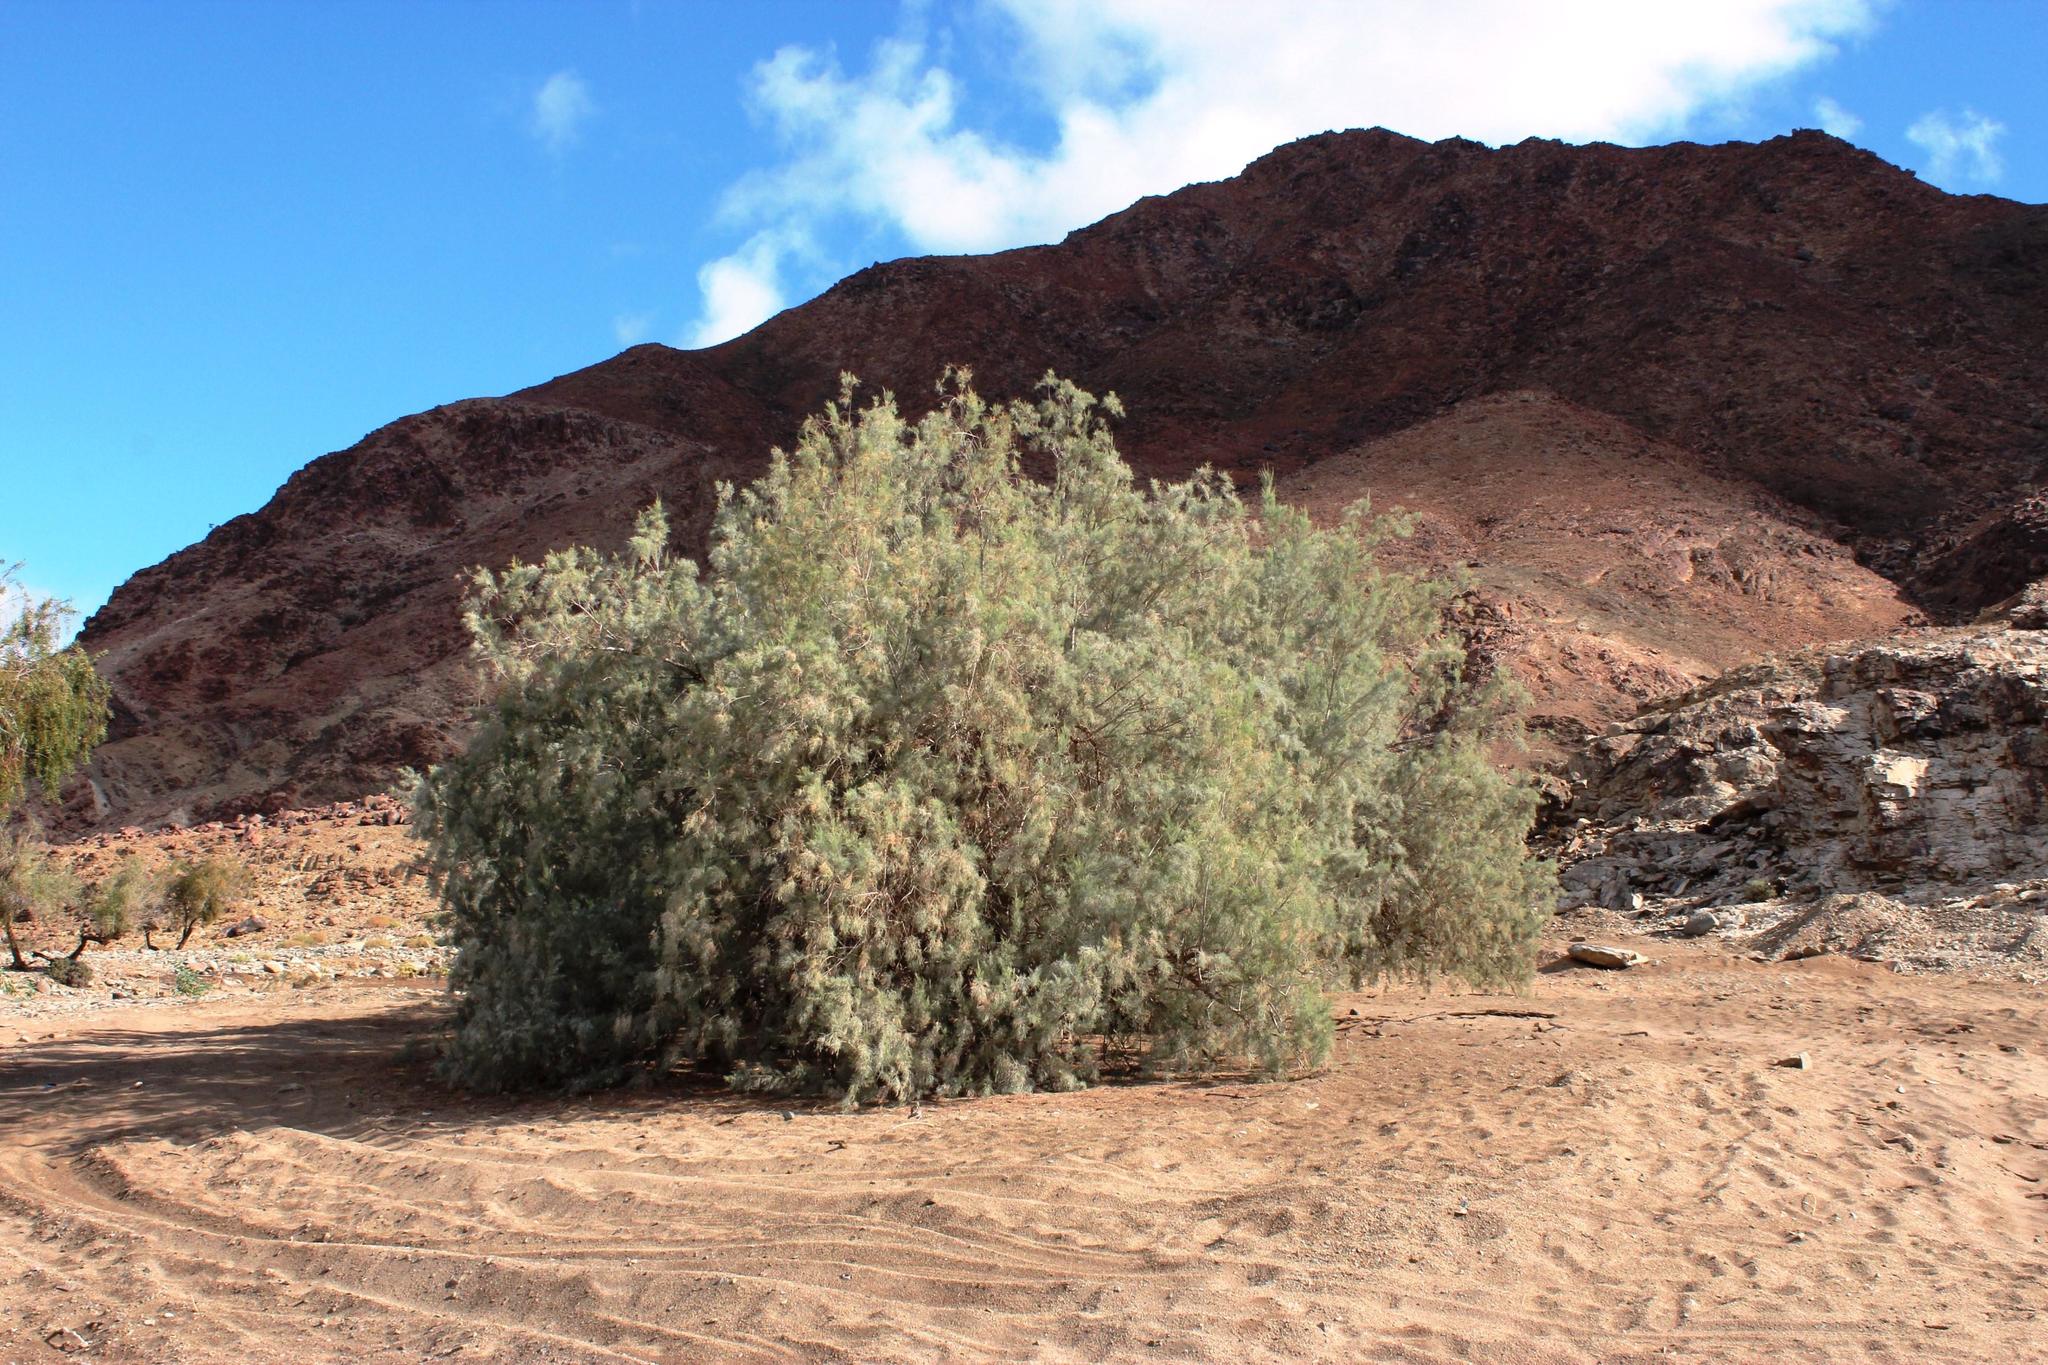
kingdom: Plantae
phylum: Tracheophyta
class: Magnoliopsida
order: Caryophyllales
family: Tamaricaceae
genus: Tamarix
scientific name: Tamarix usneoides
